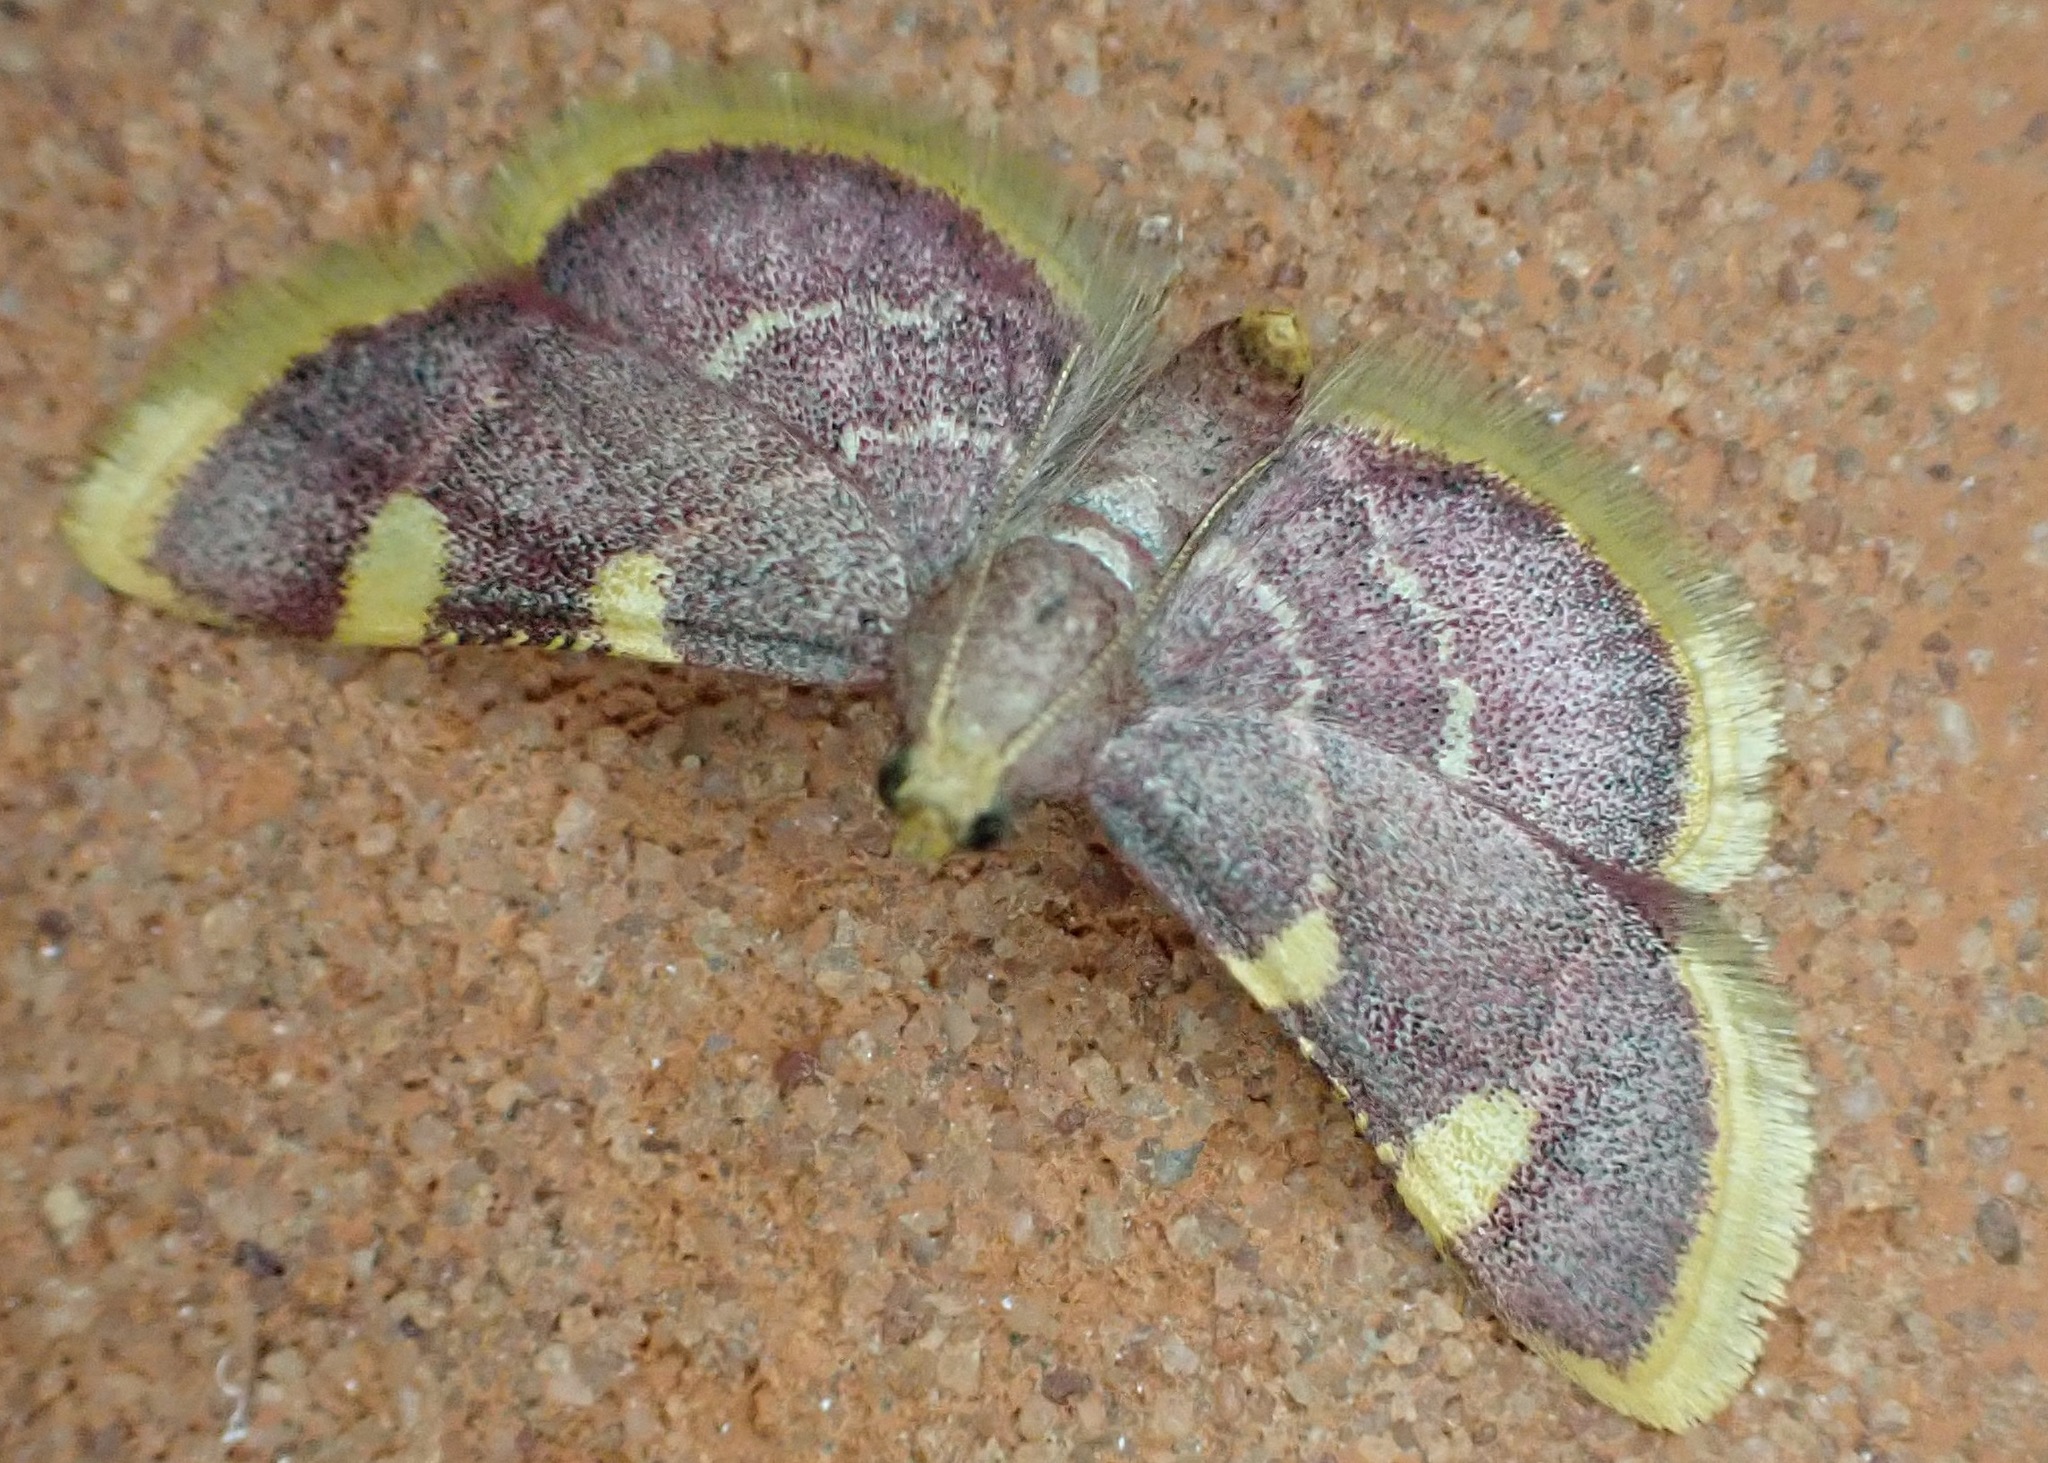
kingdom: Animalia
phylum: Arthropoda
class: Insecta
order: Lepidoptera
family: Pyralidae
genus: Hypsopygia
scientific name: Hypsopygia costalis
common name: Gold triangle
